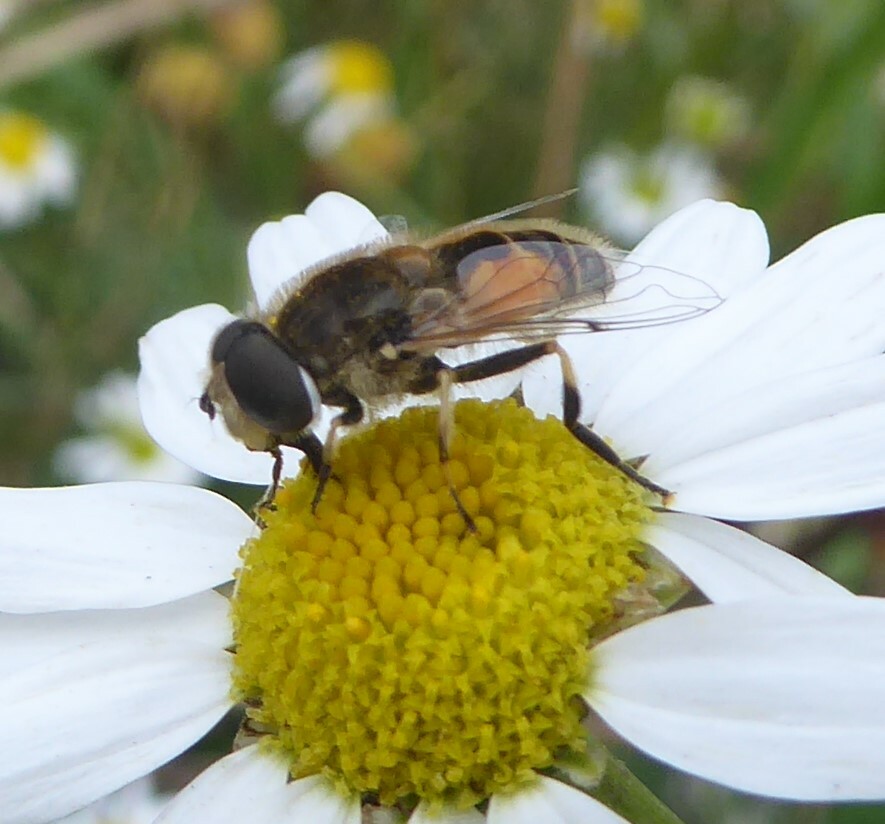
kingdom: Animalia
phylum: Arthropoda
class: Insecta
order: Diptera
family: Syrphidae
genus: Eristalis
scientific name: Eristalis arbustorum
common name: Hover fly
